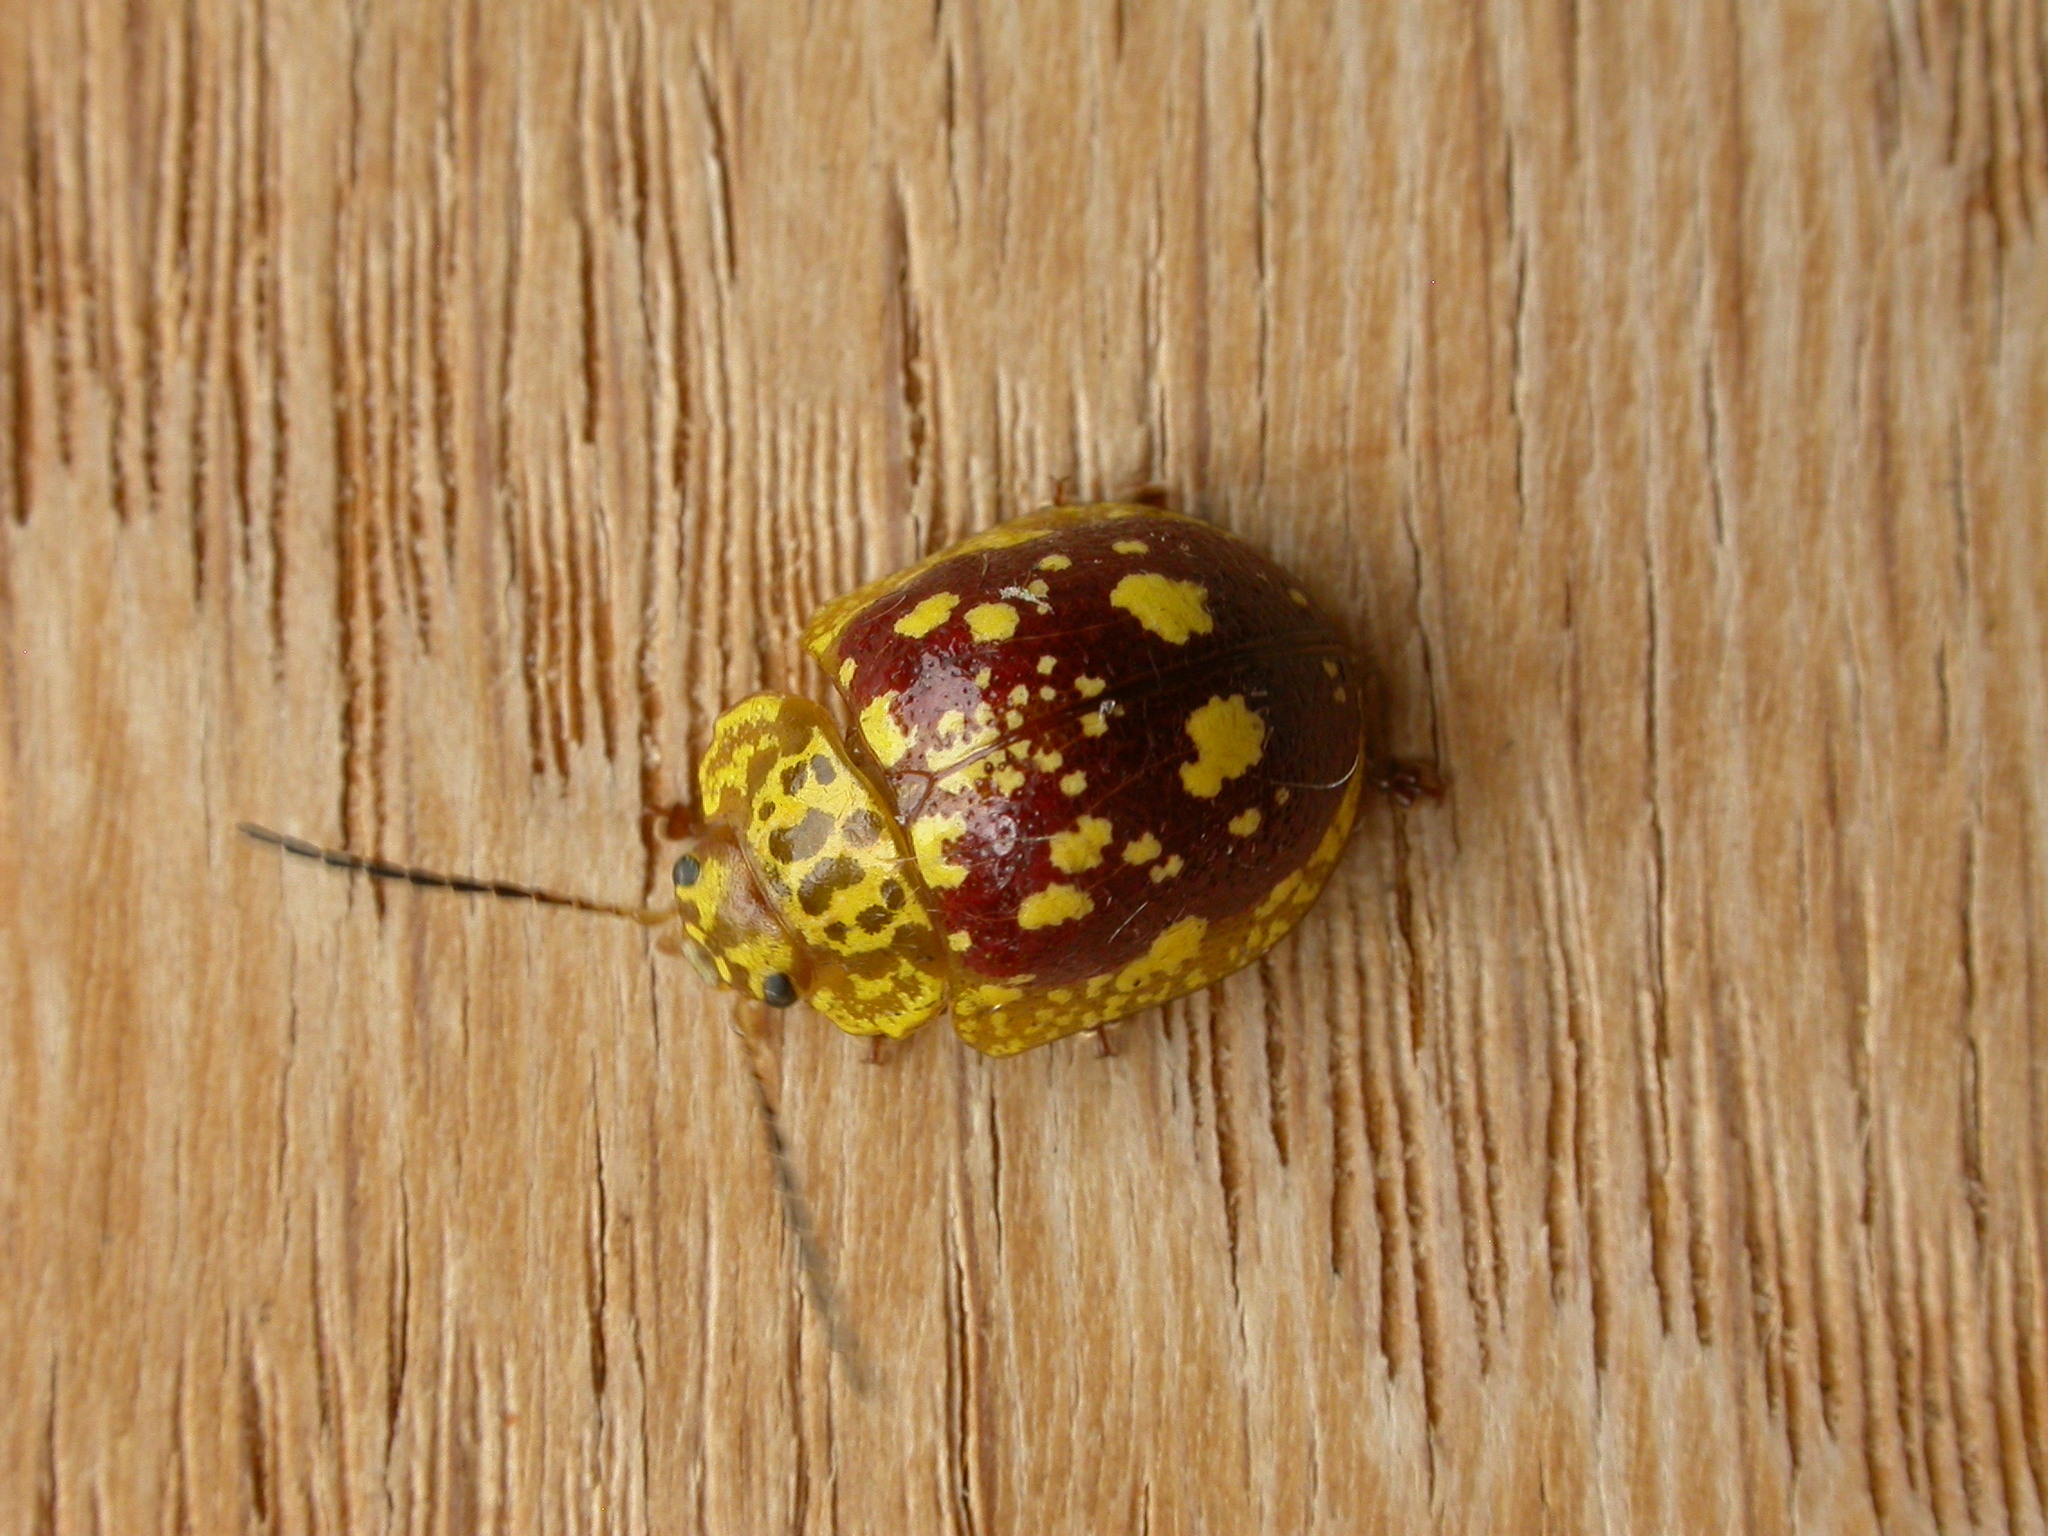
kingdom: Animalia
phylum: Arthropoda
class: Insecta
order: Coleoptera
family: Chrysomelidae
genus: Paropsis
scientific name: Paropsis maculata
